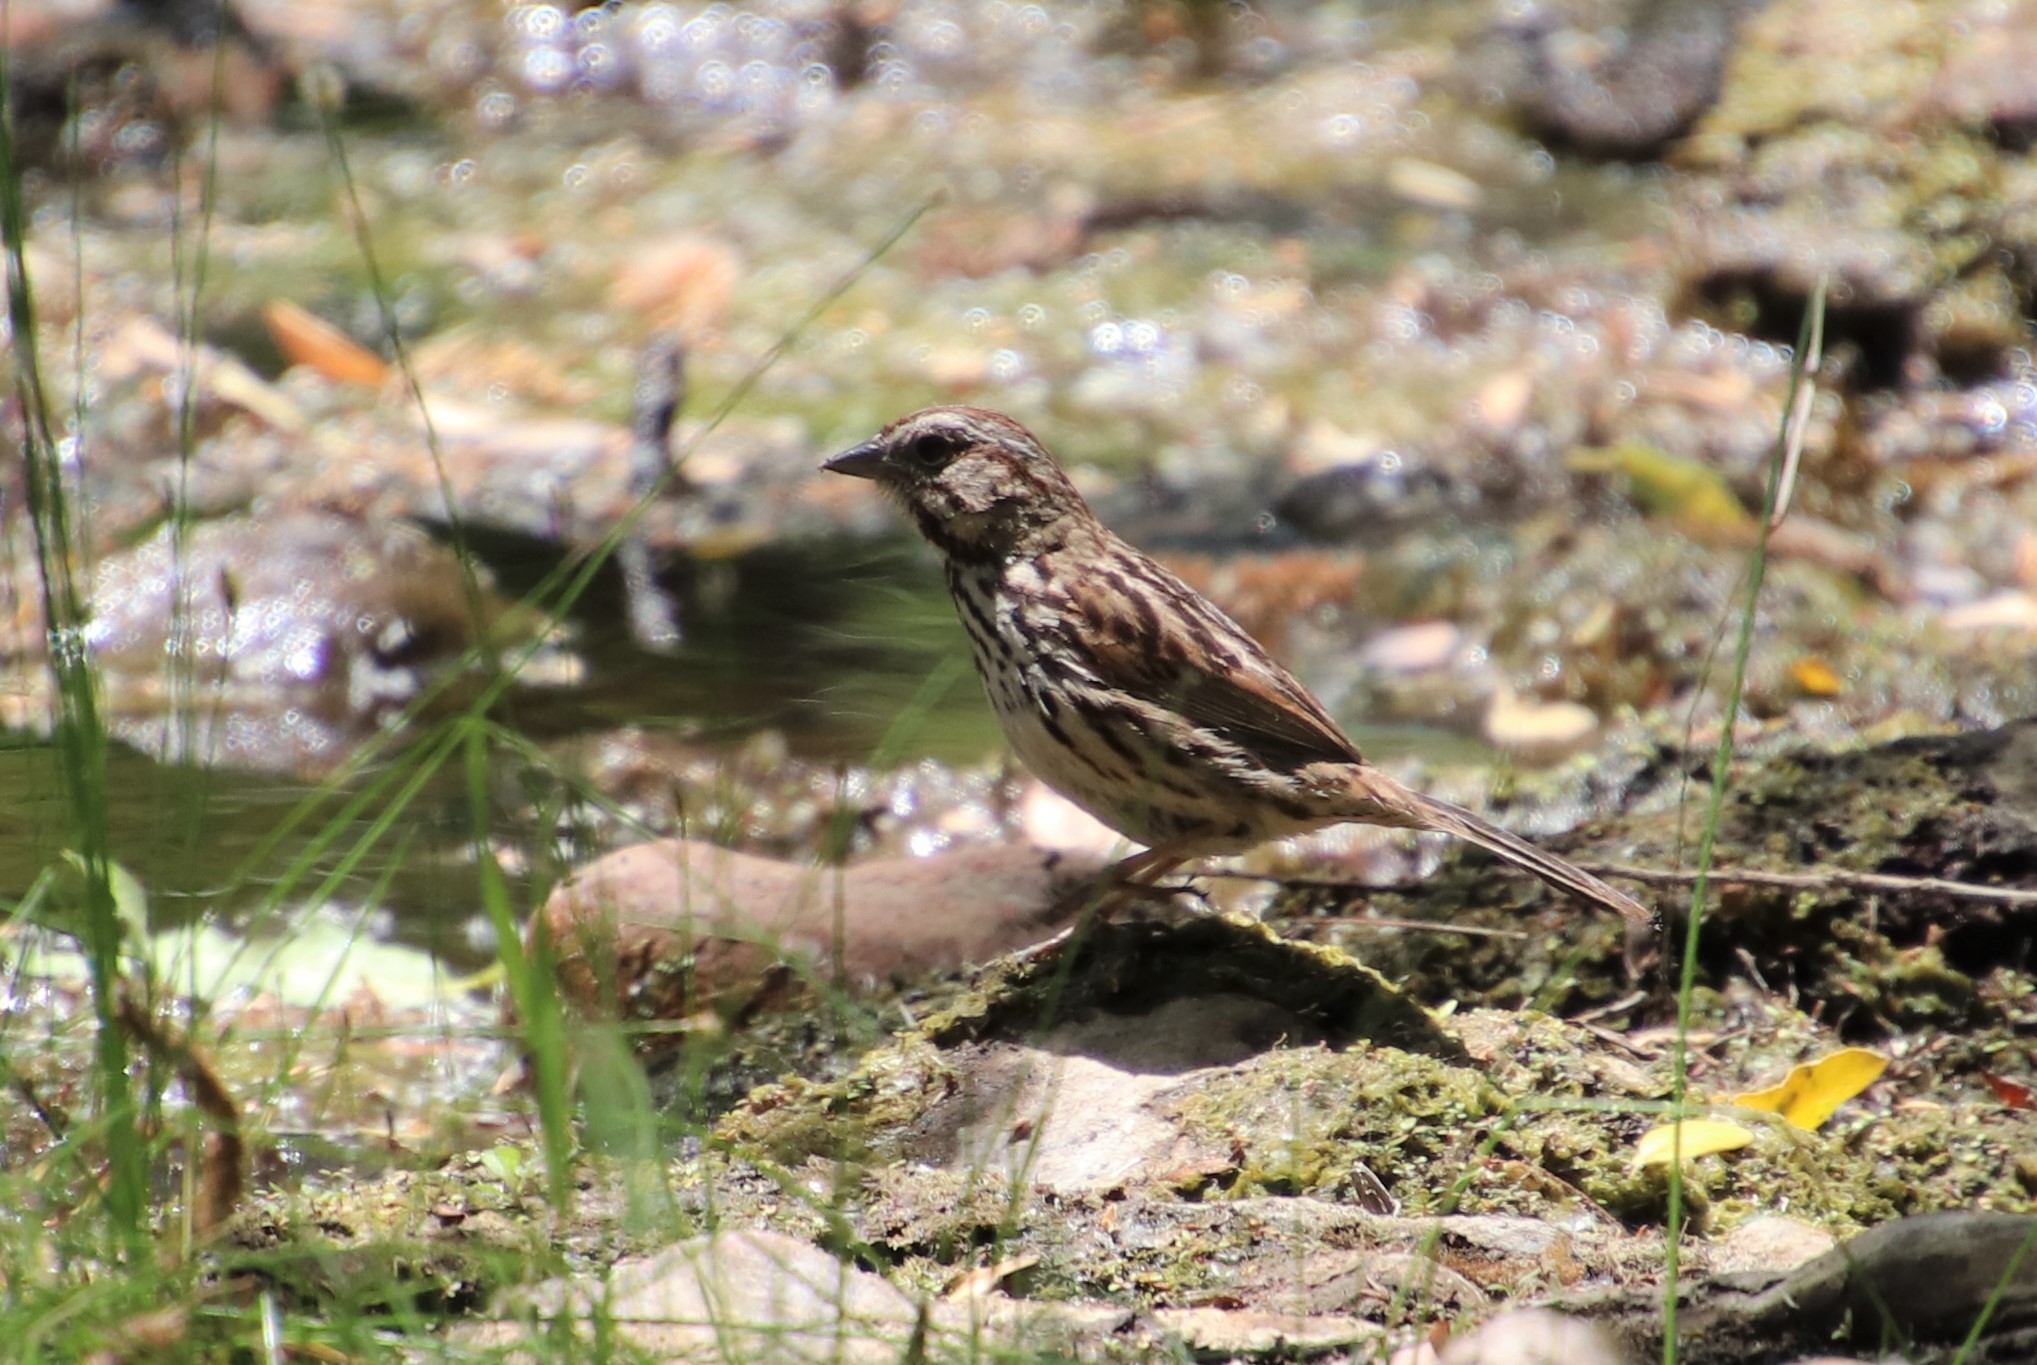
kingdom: Animalia
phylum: Chordata
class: Aves
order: Passeriformes
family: Passerellidae
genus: Melospiza
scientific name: Melospiza melodia
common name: Song sparrow
